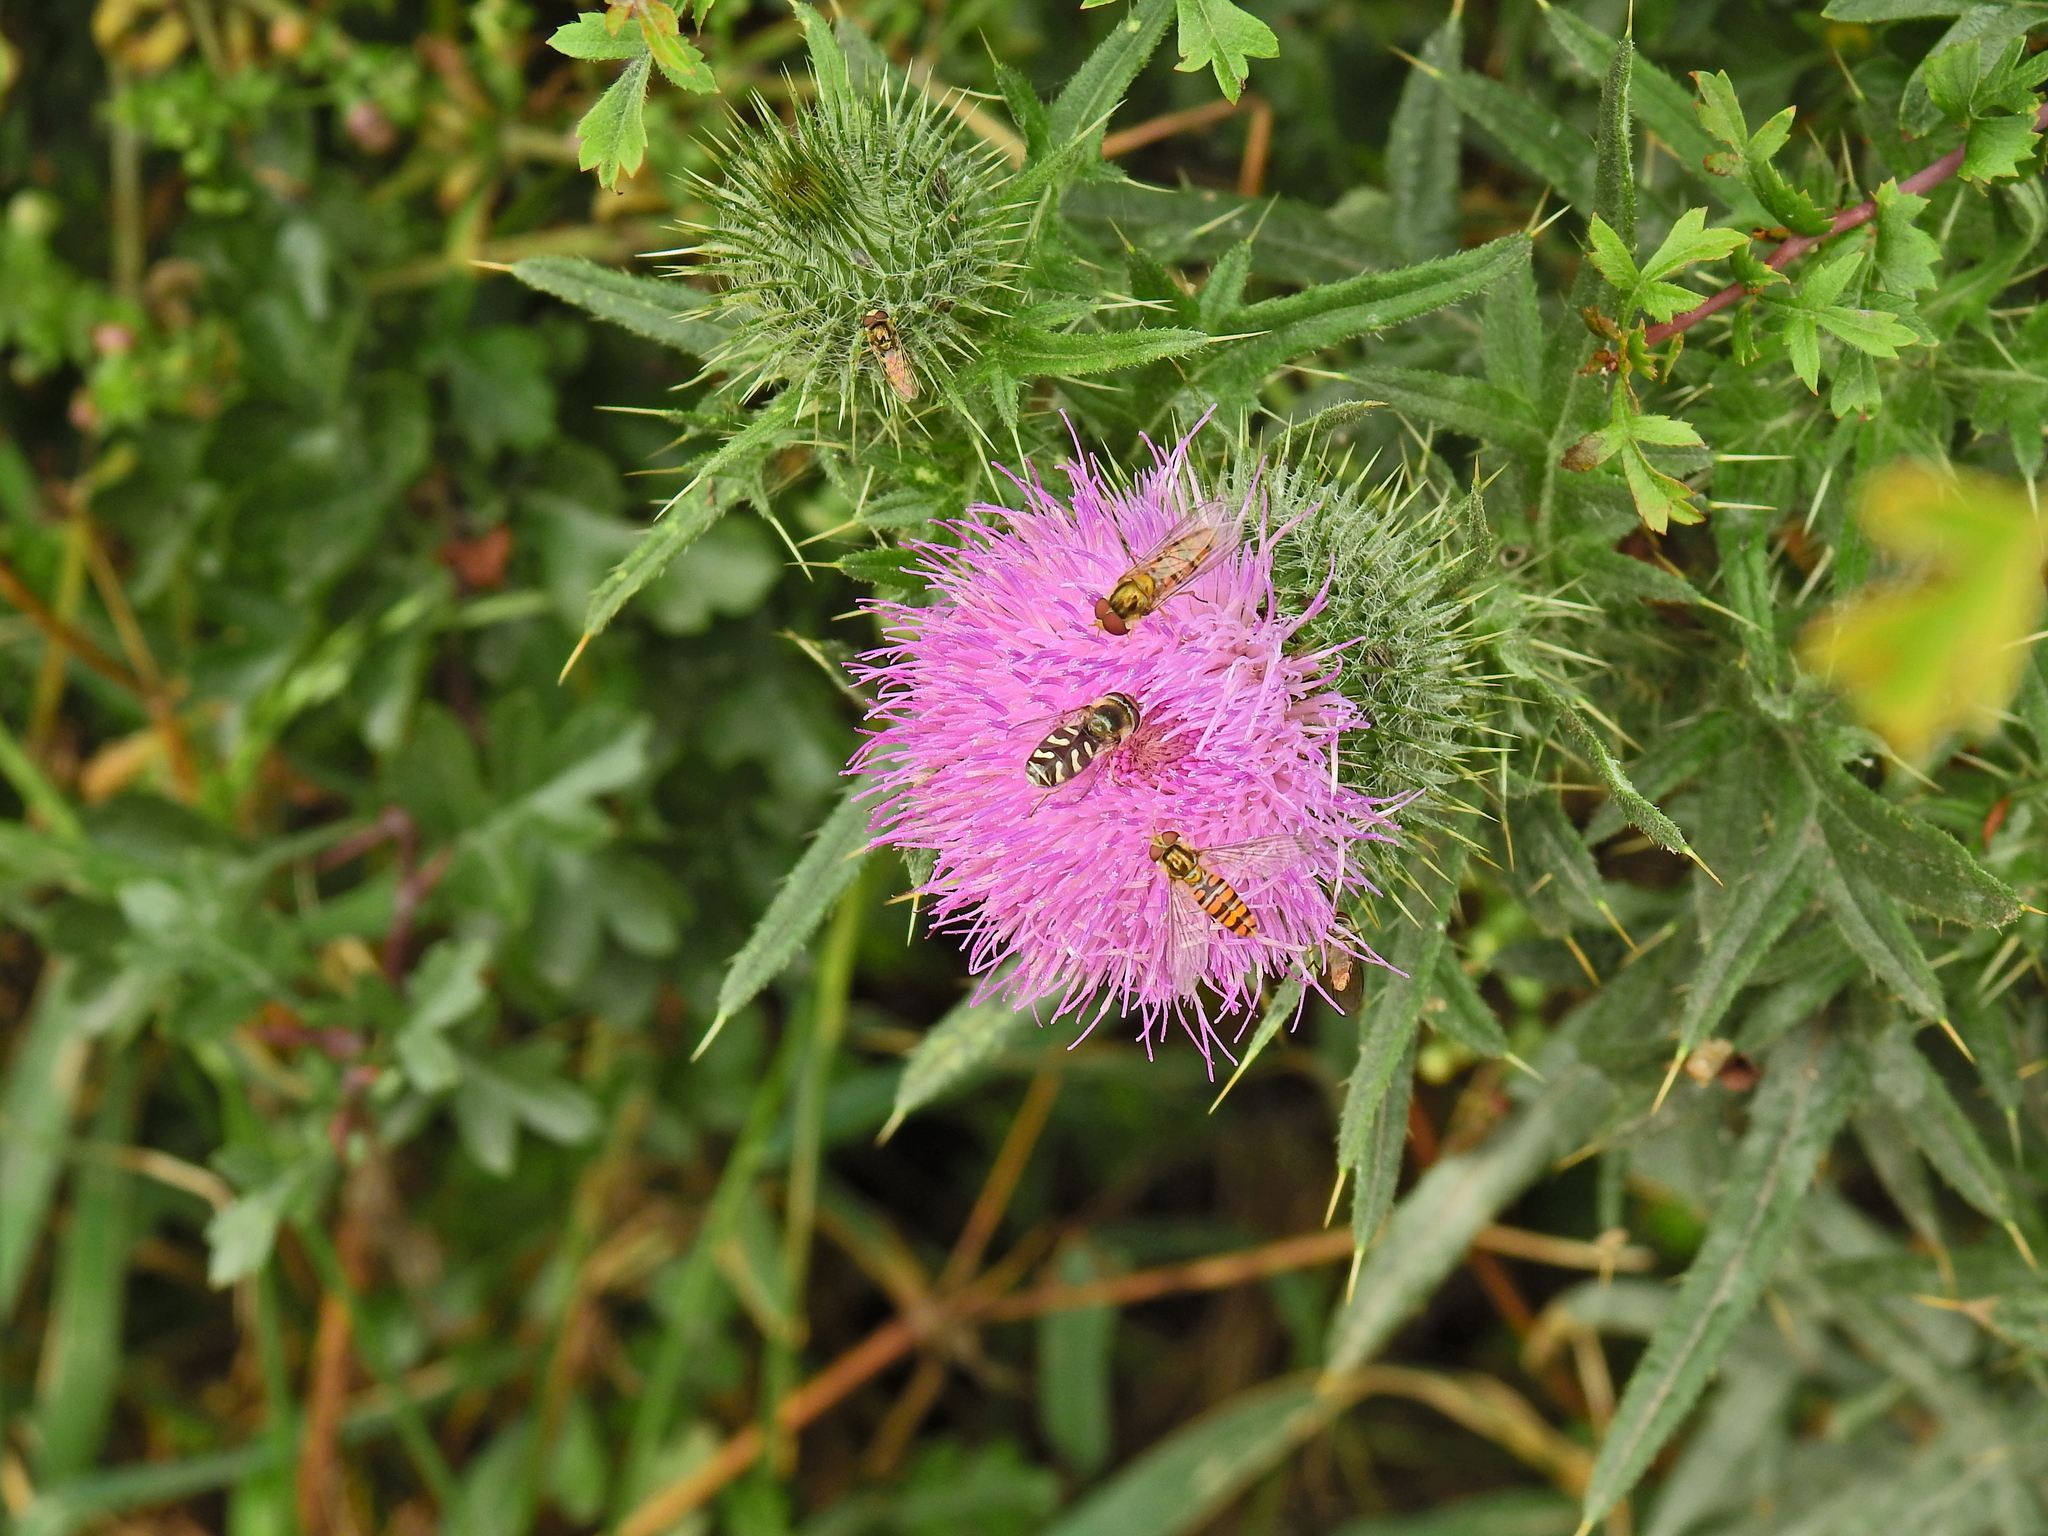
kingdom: Animalia
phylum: Arthropoda
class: Insecta
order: Diptera
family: Syrphidae
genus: Episyrphus
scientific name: Episyrphus balteatus
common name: Marmalade hoverfly
